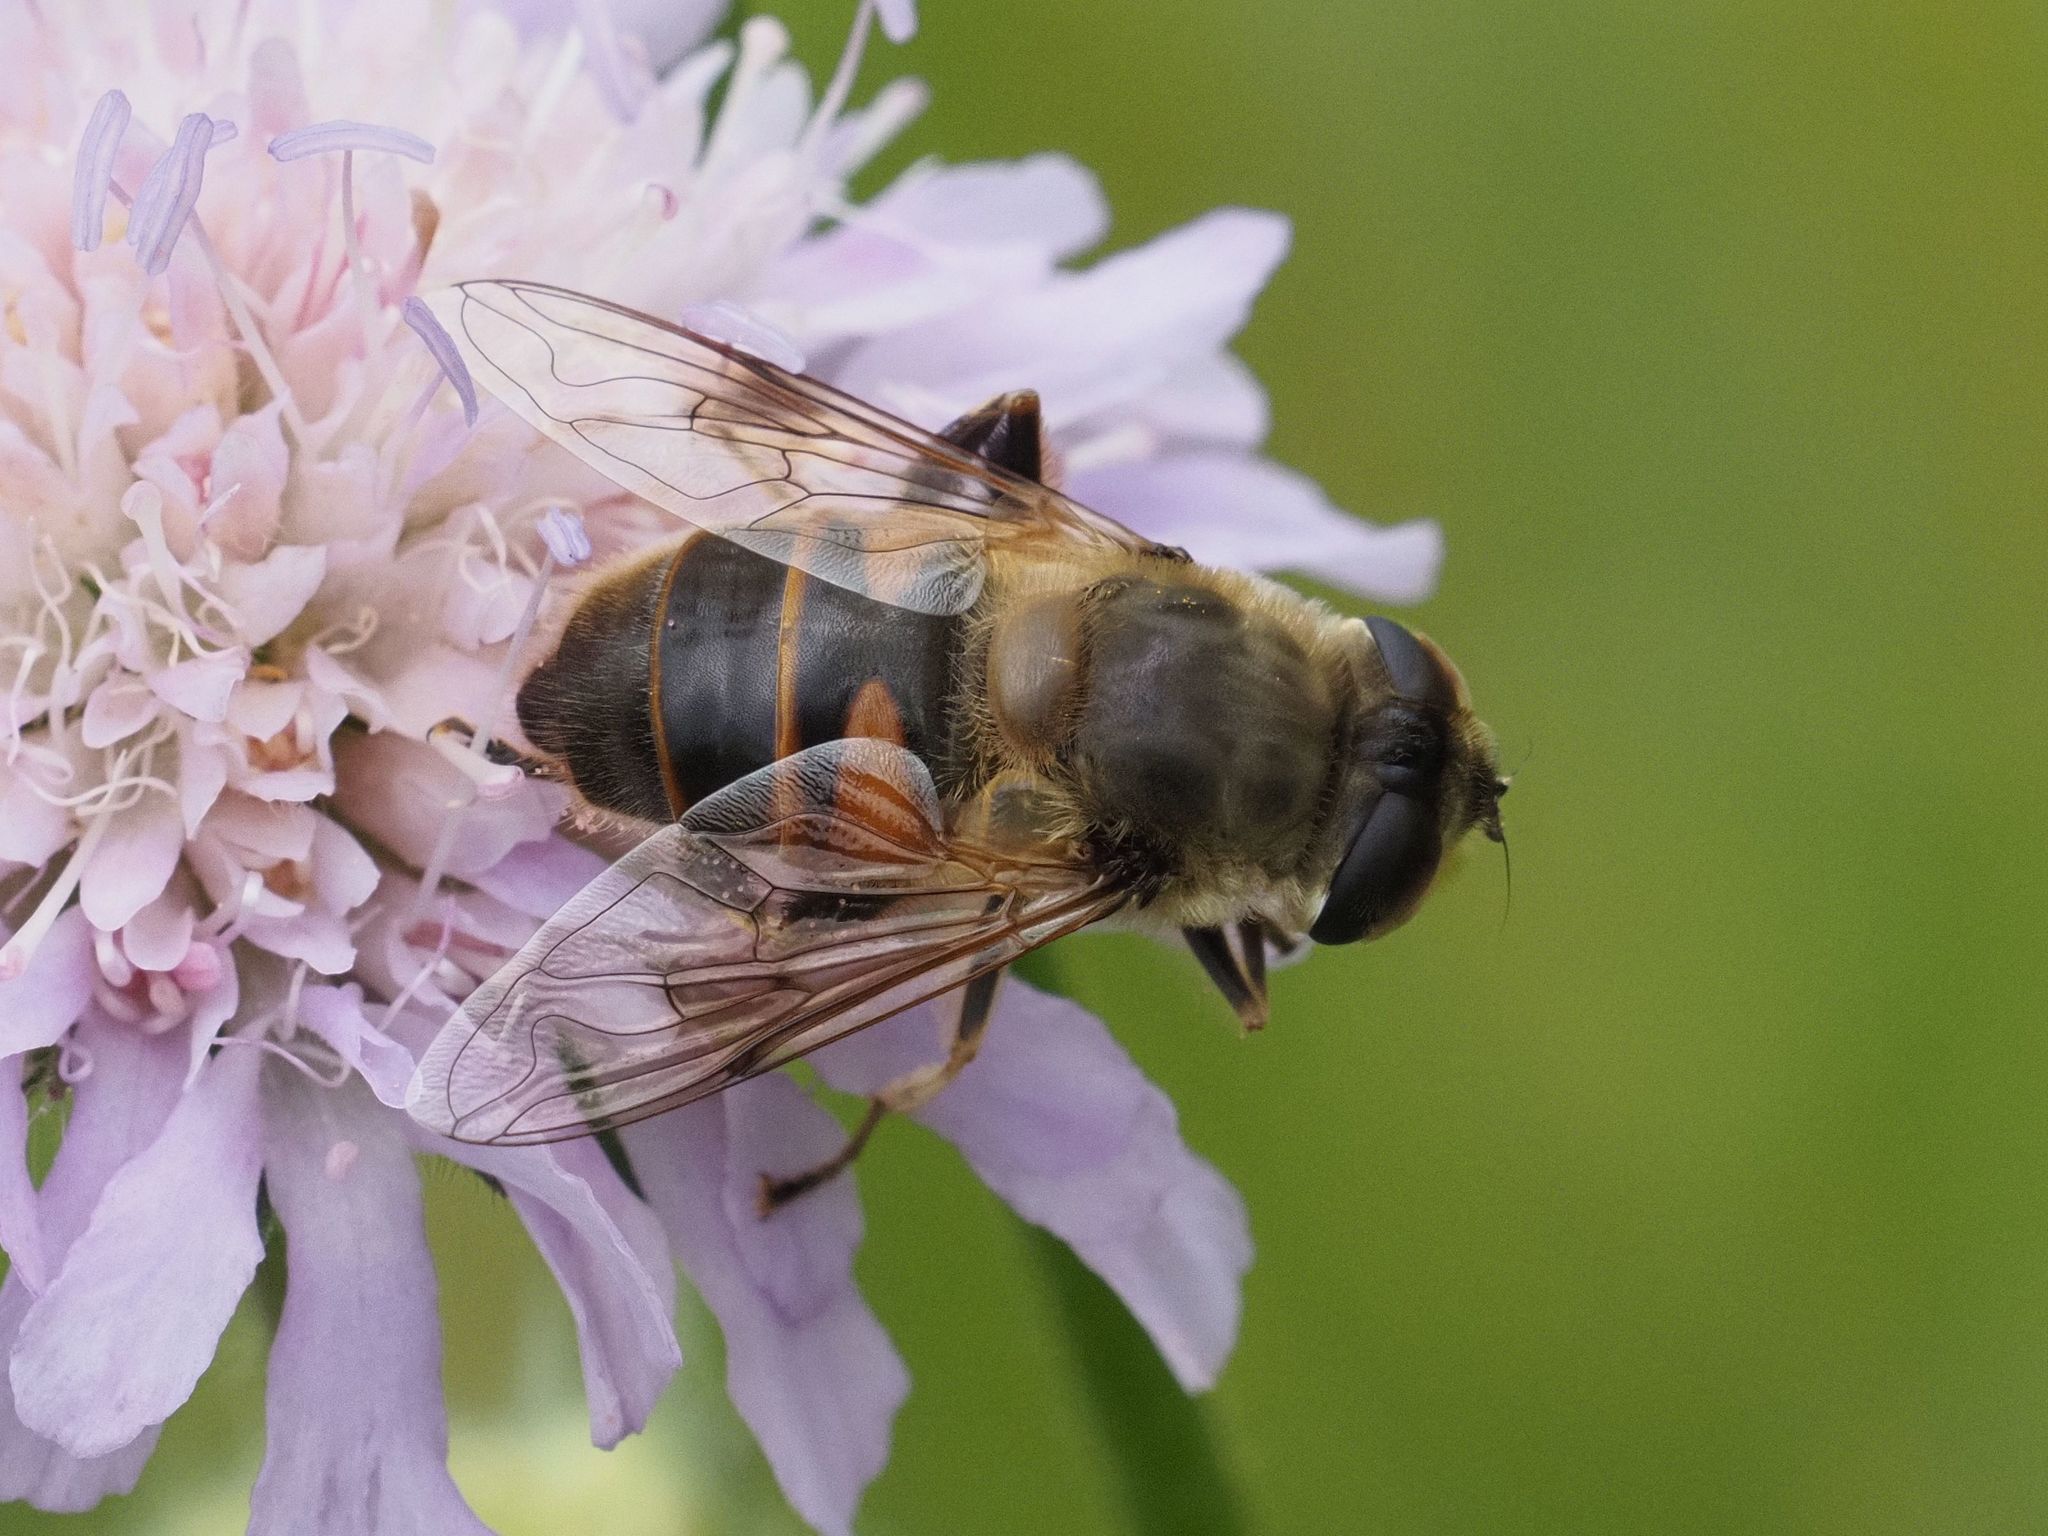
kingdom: Animalia
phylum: Arthropoda
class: Insecta
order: Diptera
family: Syrphidae
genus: Eristalis
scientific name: Eristalis tenax
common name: Drone fly
